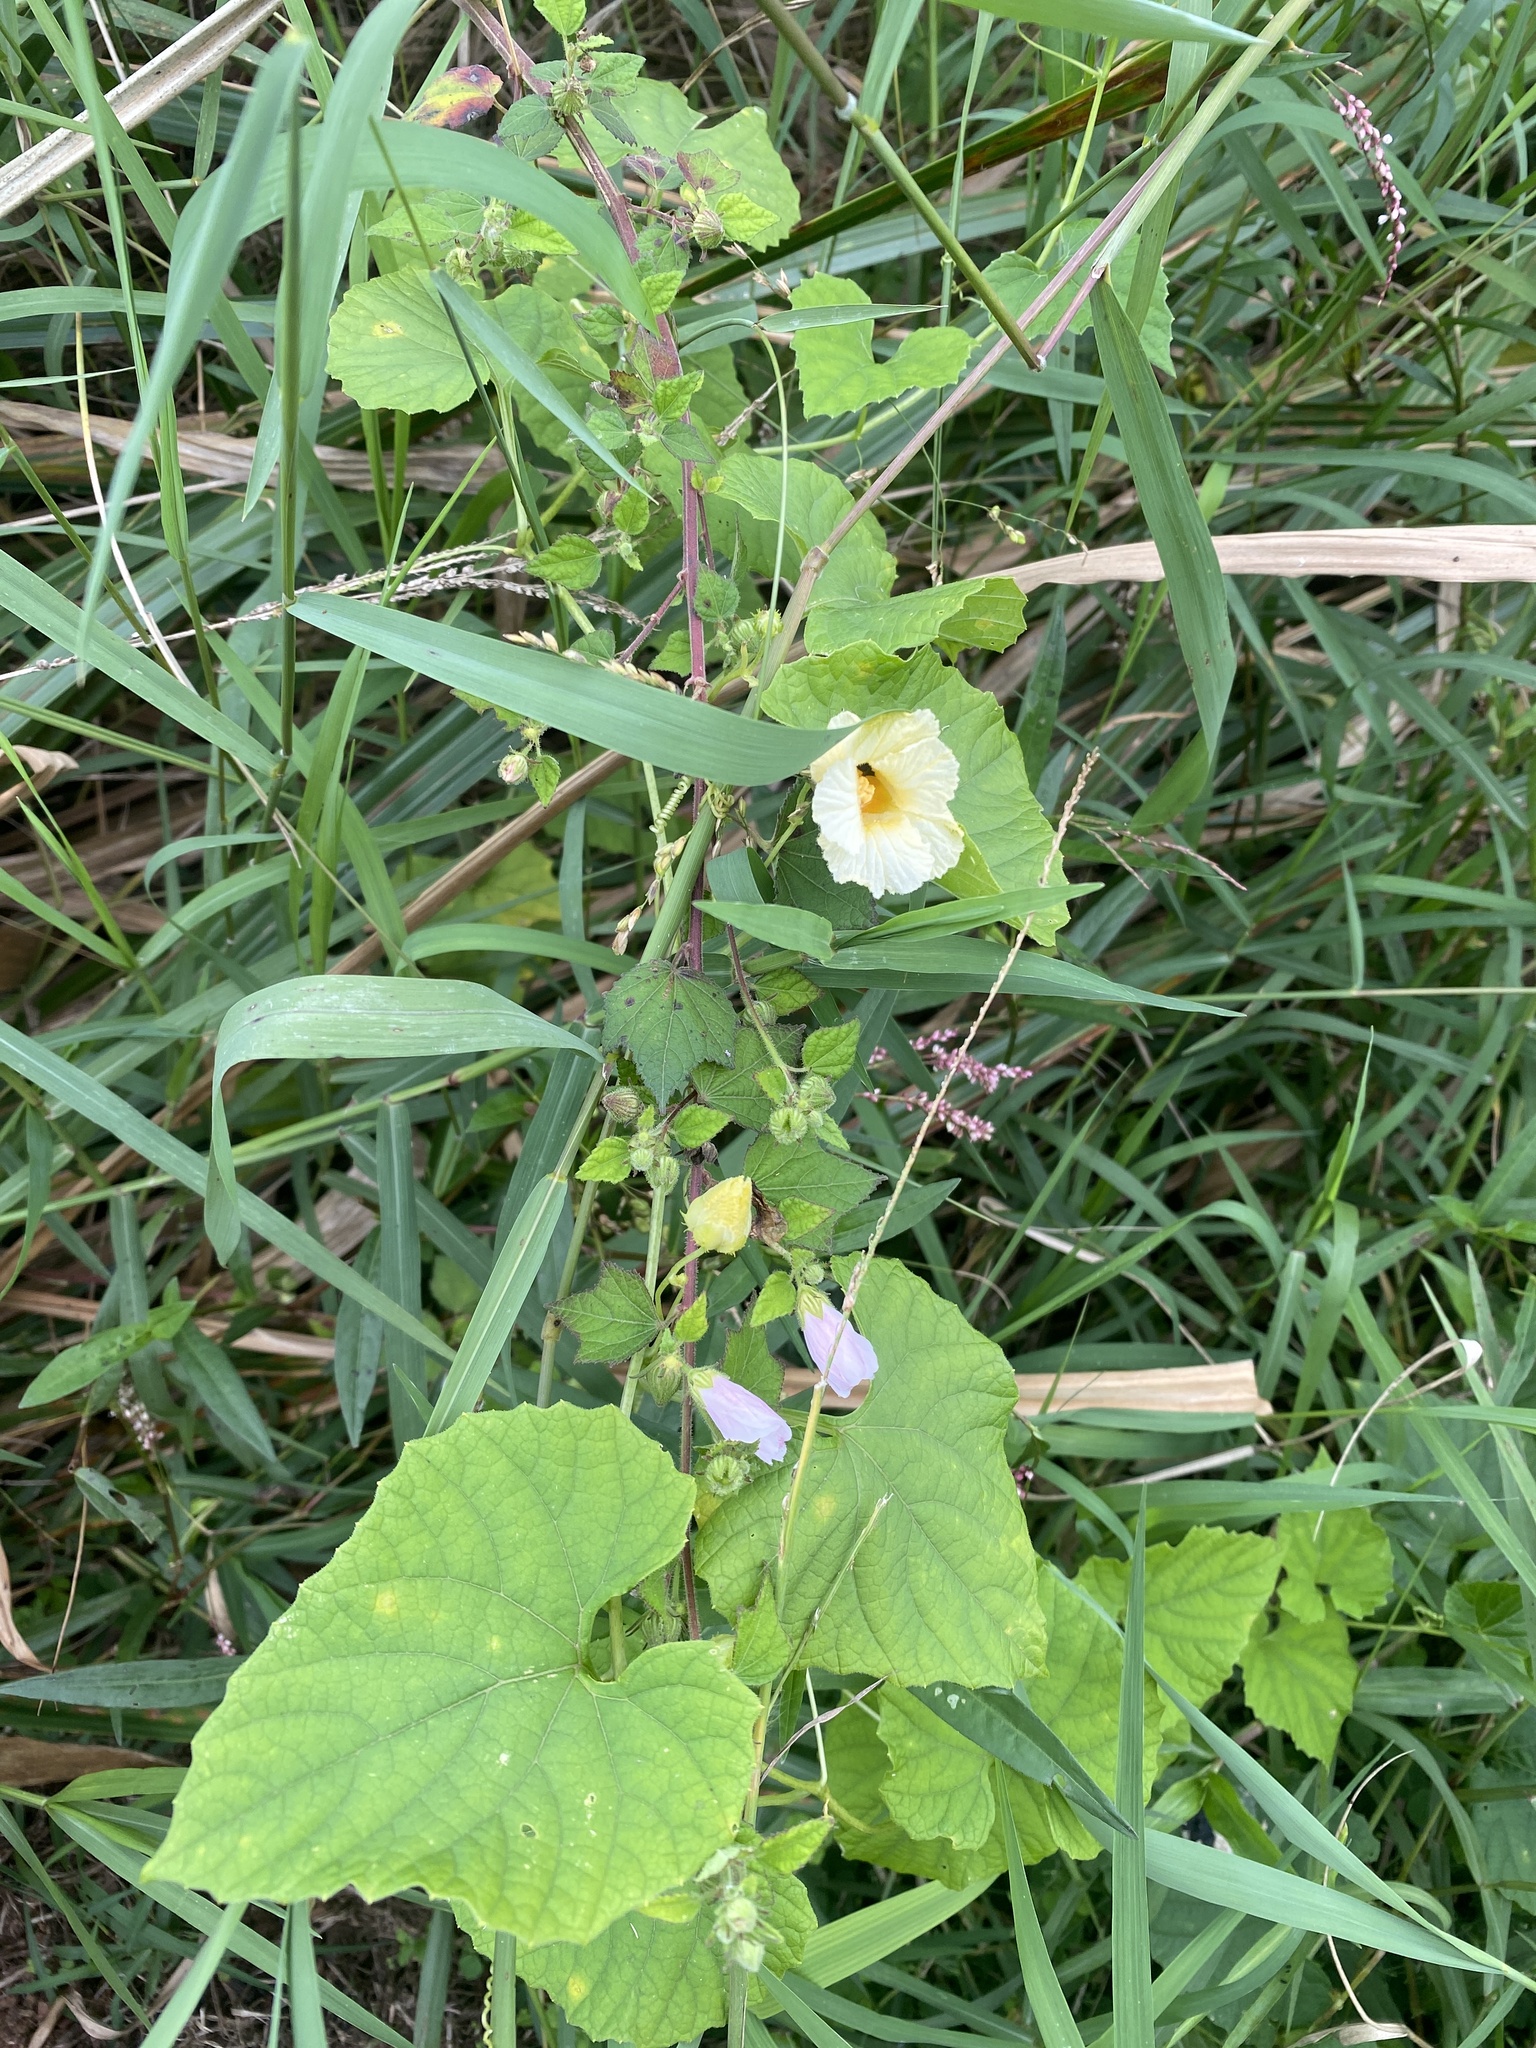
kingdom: Plantae
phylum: Tracheophyta
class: Magnoliopsida
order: Cucurbitales
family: Cucurbitaceae
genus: Momordica
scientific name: Momordica foetida
